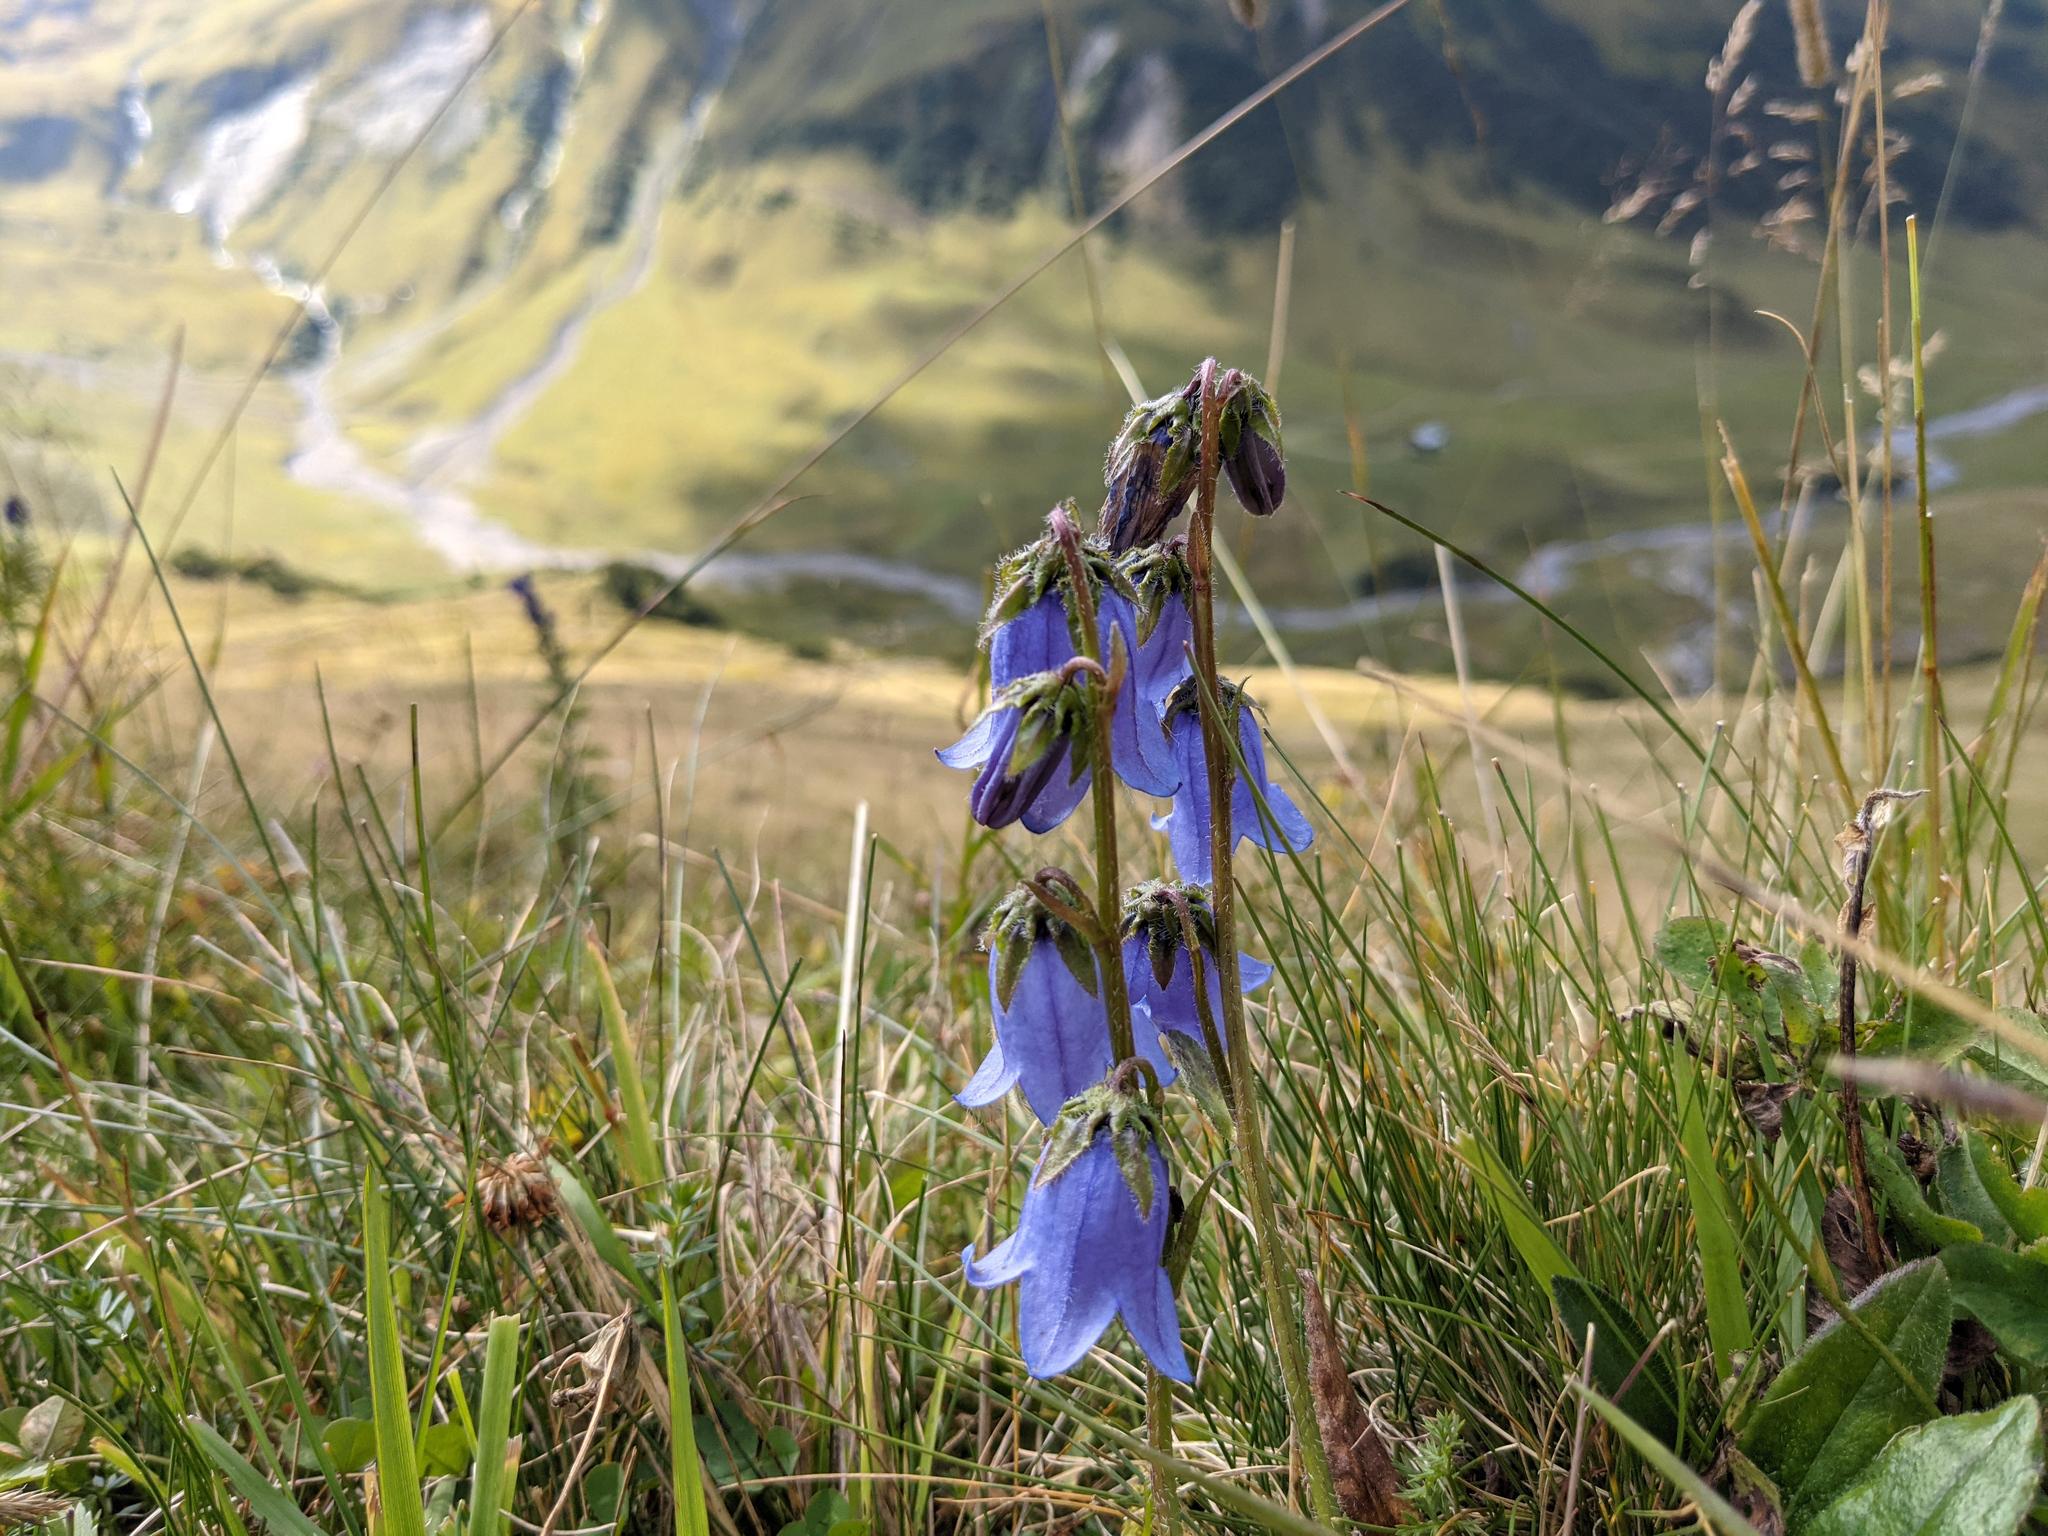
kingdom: Plantae
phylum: Tracheophyta
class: Magnoliopsida
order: Asterales
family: Campanulaceae
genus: Campanula
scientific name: Campanula barbata
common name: Bearded bellflower
